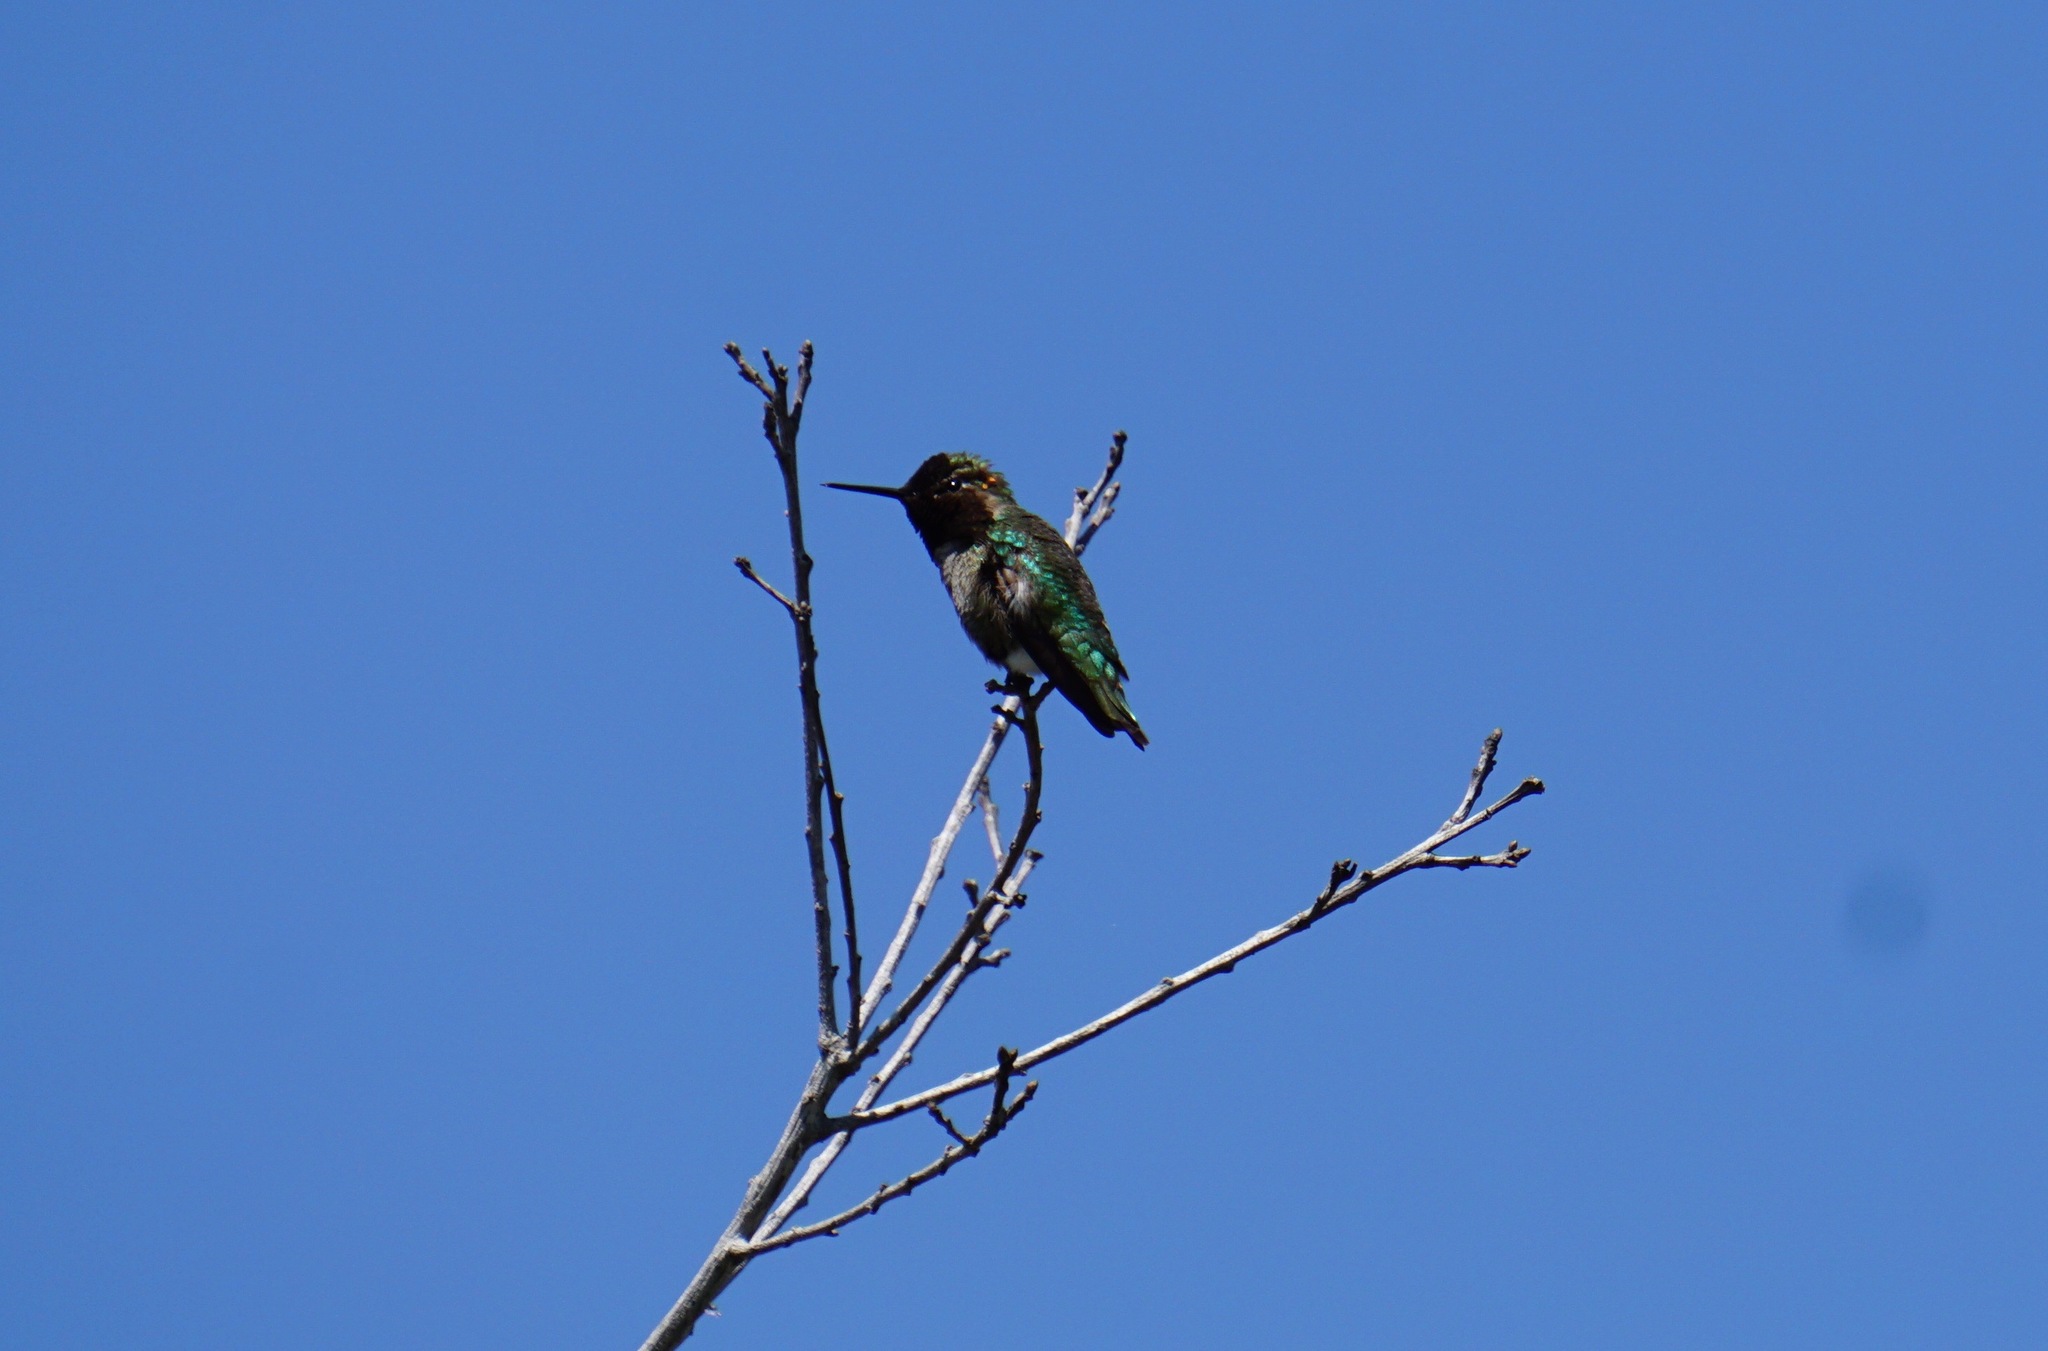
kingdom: Animalia
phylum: Chordata
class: Aves
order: Apodiformes
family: Trochilidae
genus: Calypte
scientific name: Calypte anna
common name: Anna's hummingbird
